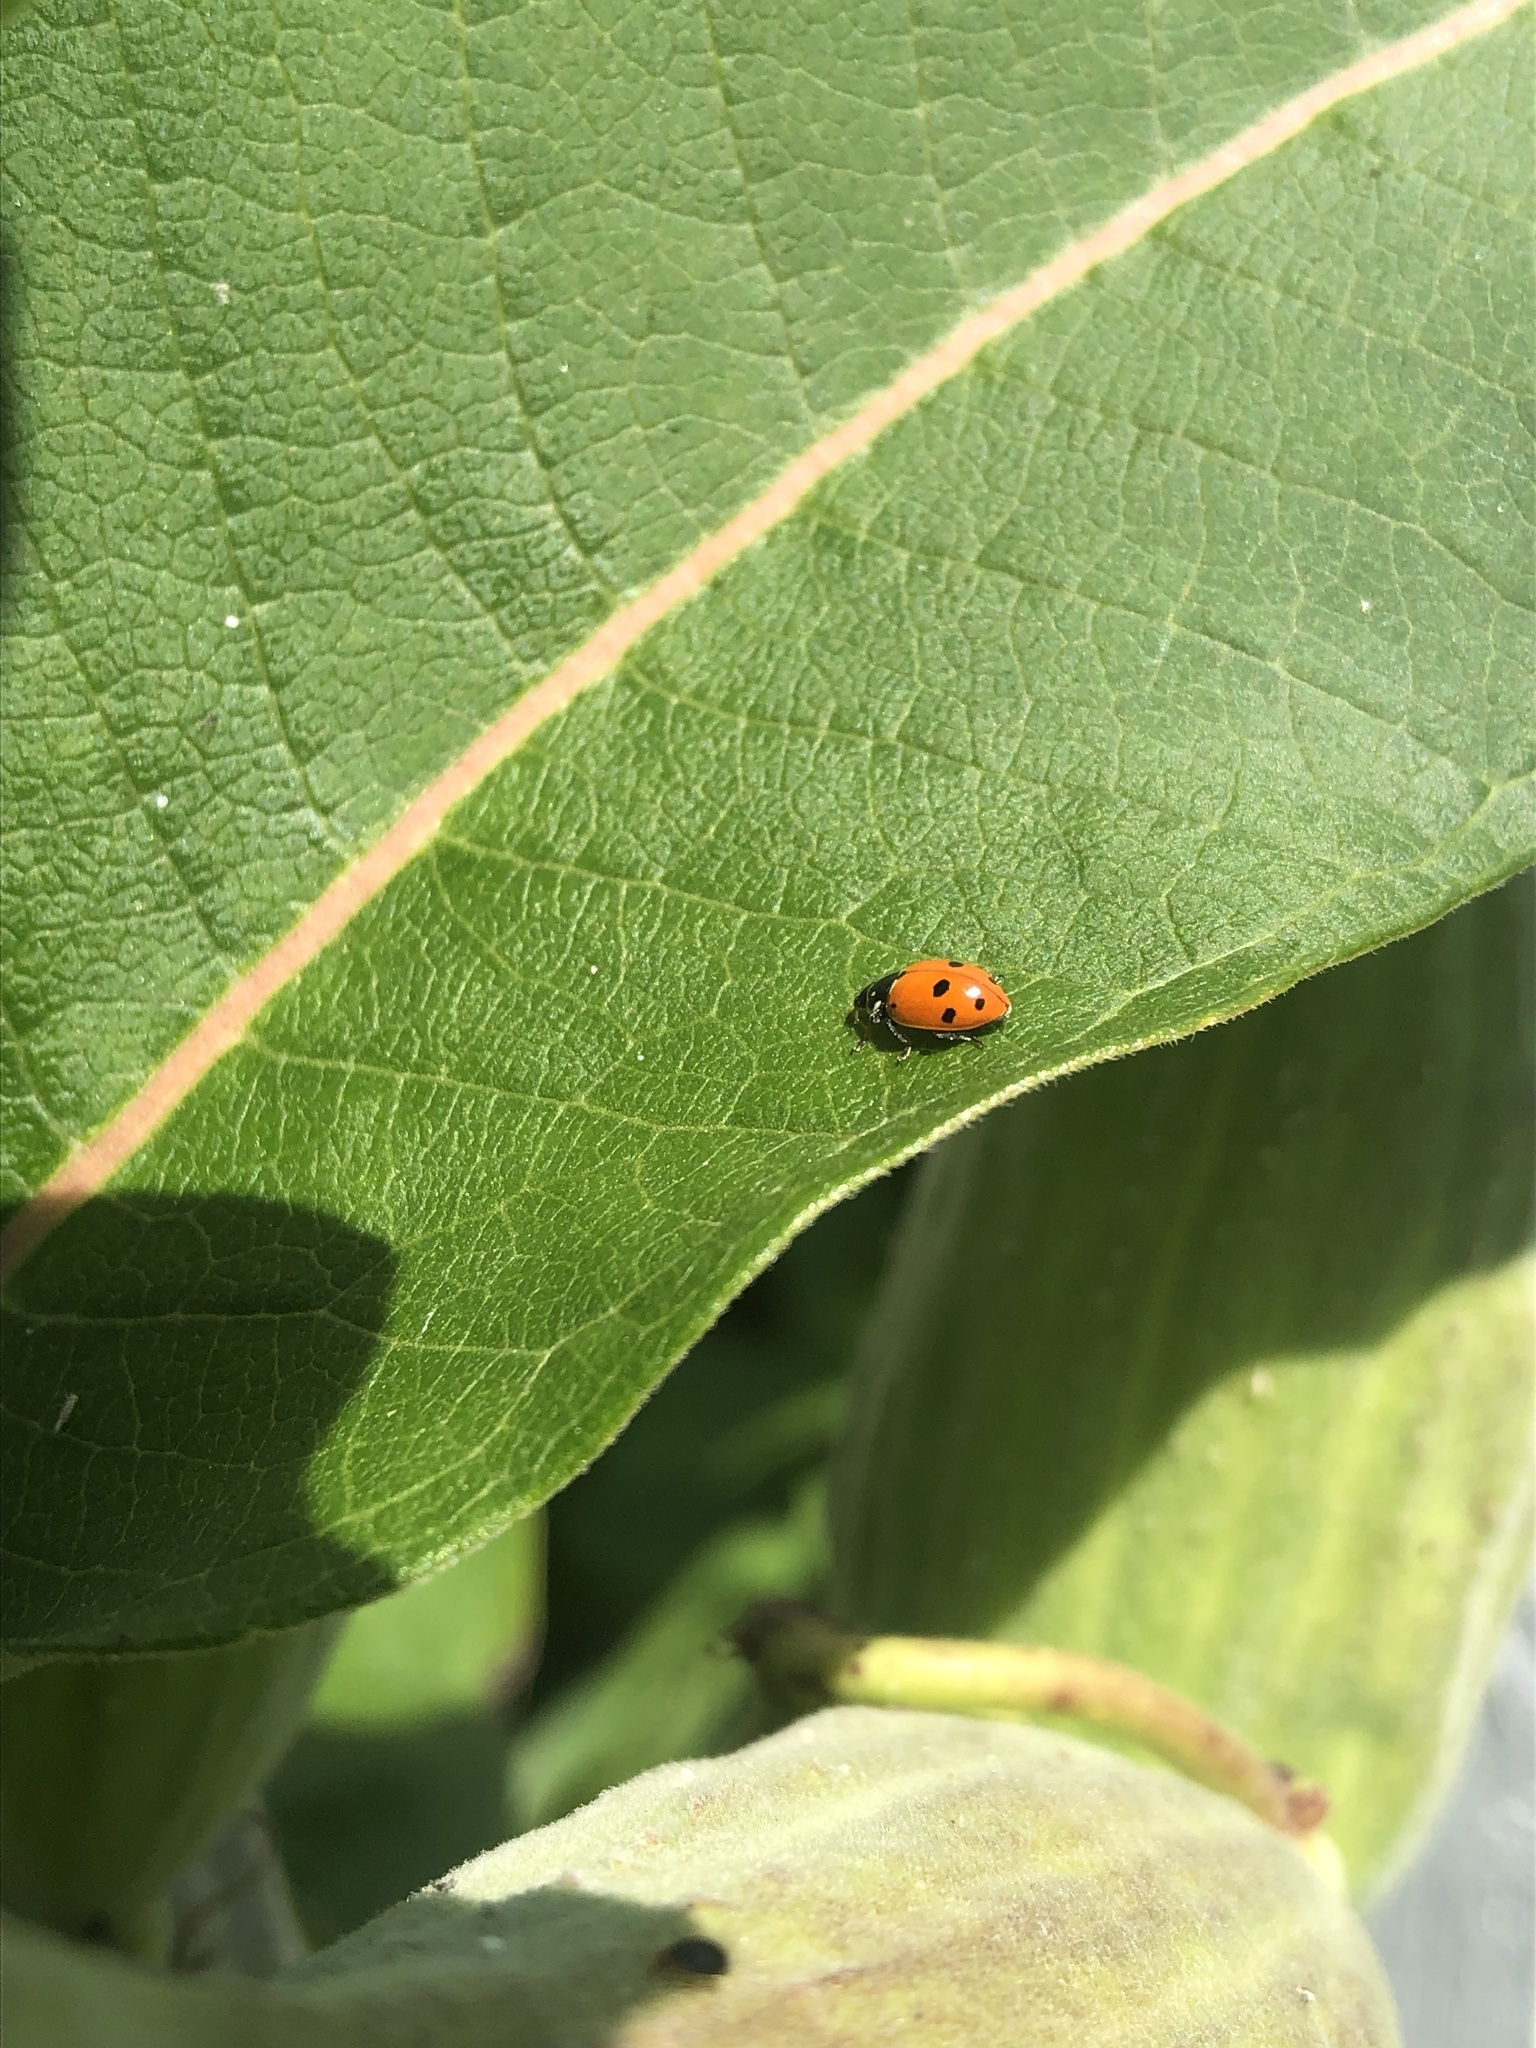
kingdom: Animalia
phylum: Arthropoda
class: Insecta
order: Coleoptera
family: Coccinellidae
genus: Hippodamia
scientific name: Hippodamia variegata
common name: Ladybird beetle
